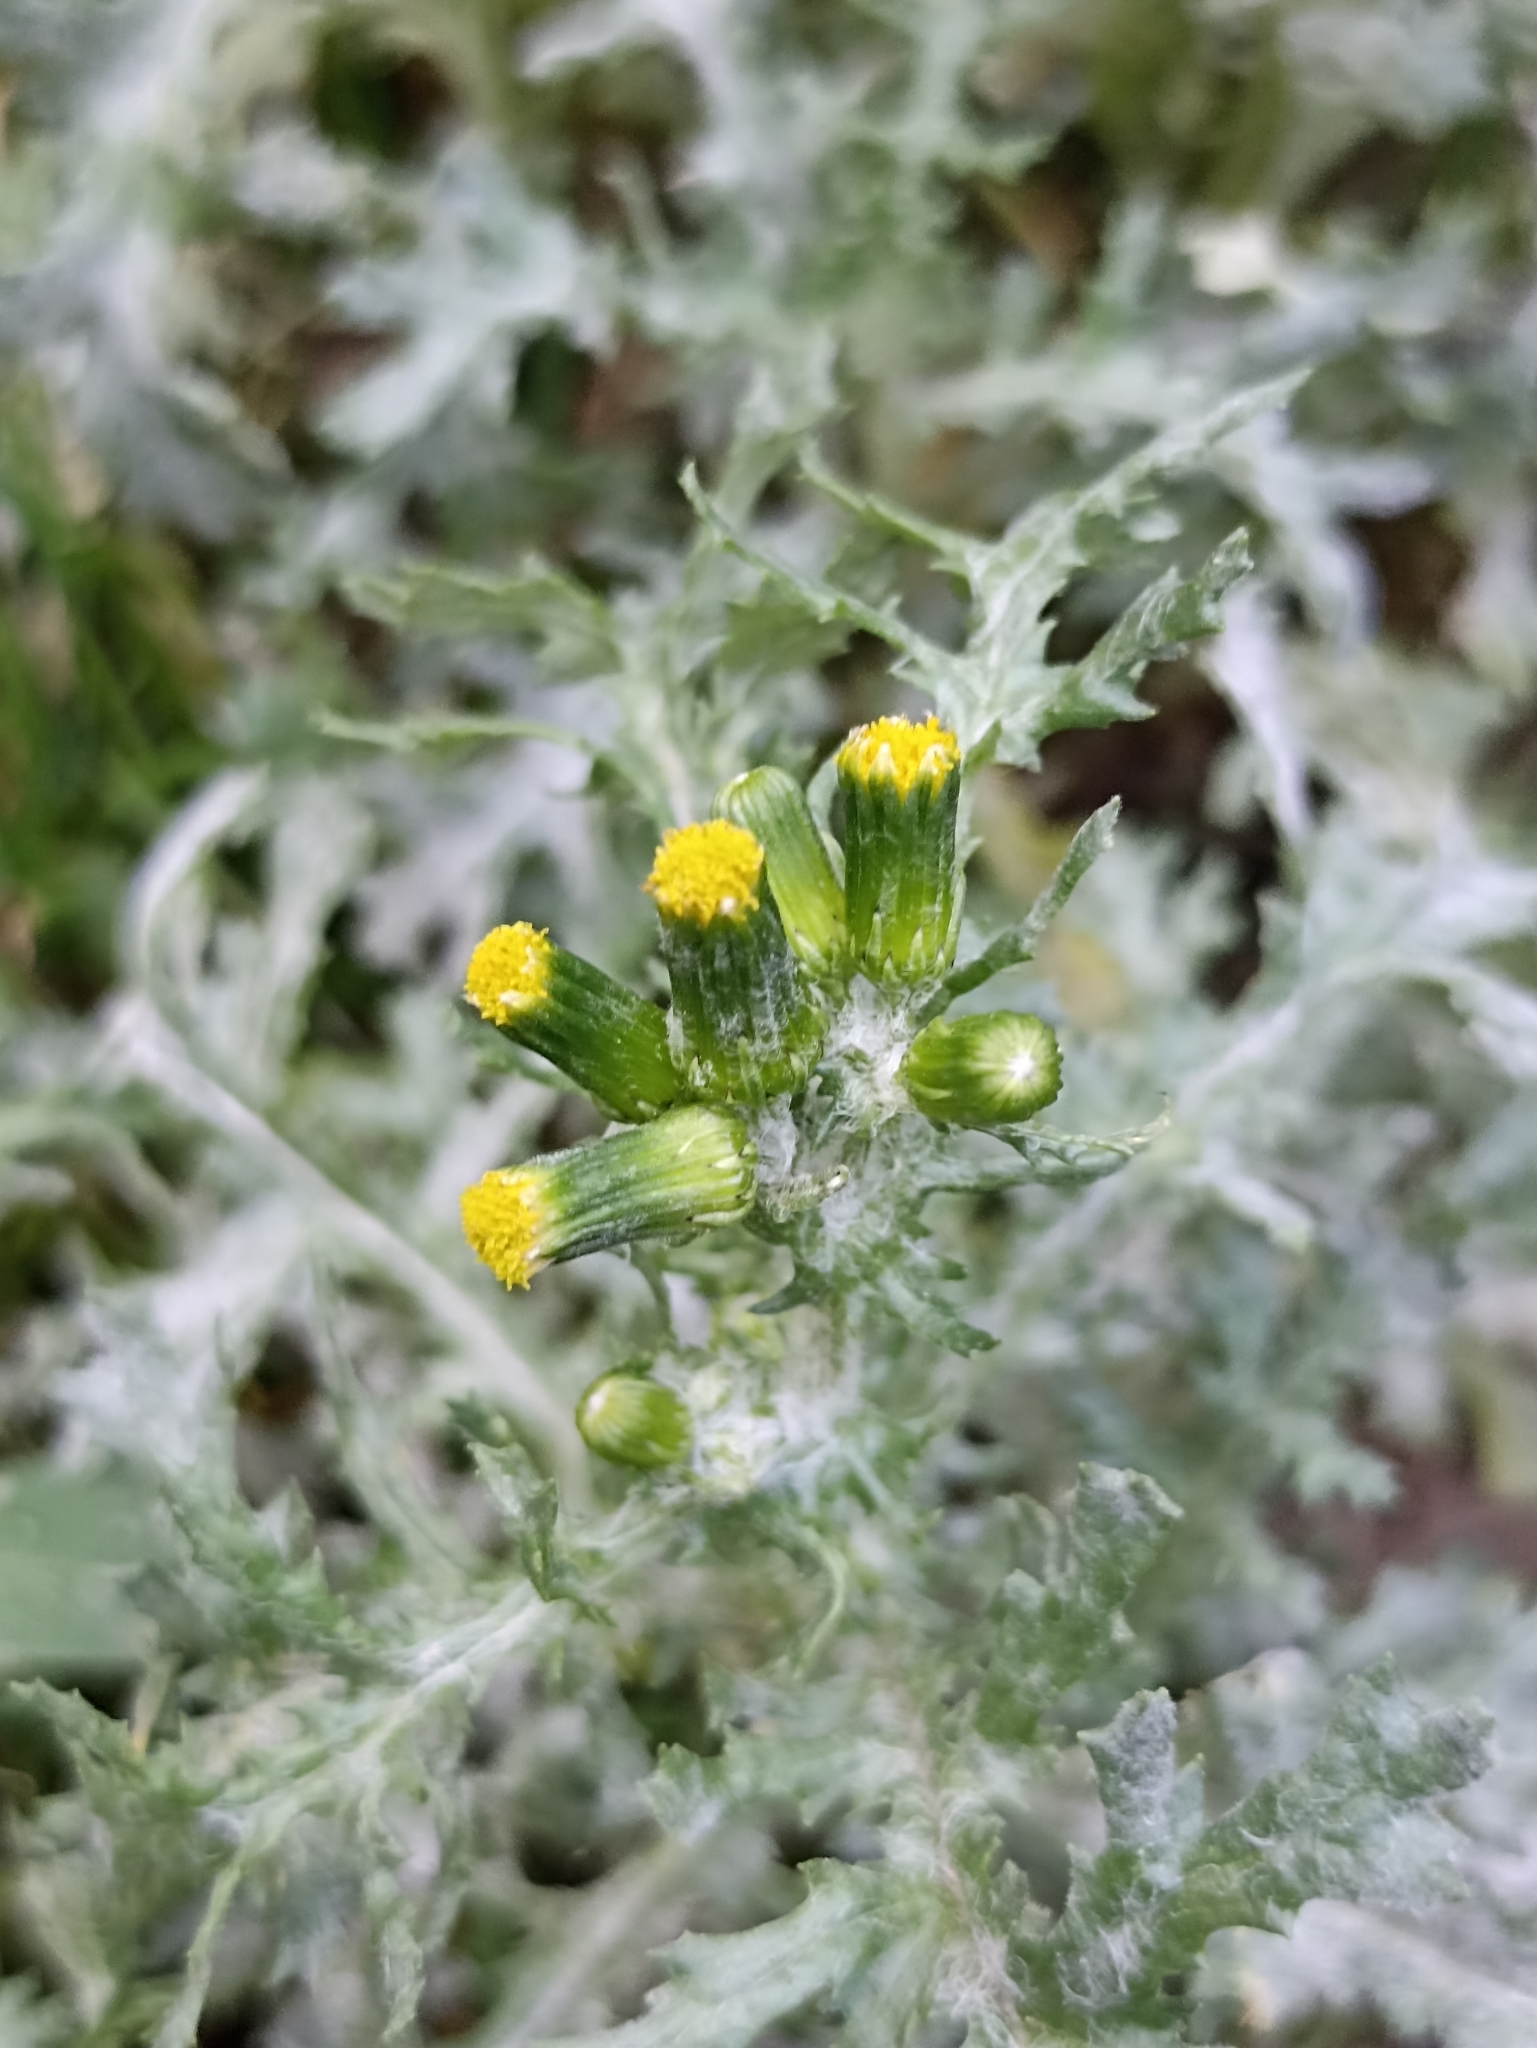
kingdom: Plantae
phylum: Tracheophyta
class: Magnoliopsida
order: Asterales
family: Asteraceae
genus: Senecio
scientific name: Senecio vulgaris
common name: Old-man-in-the-spring
